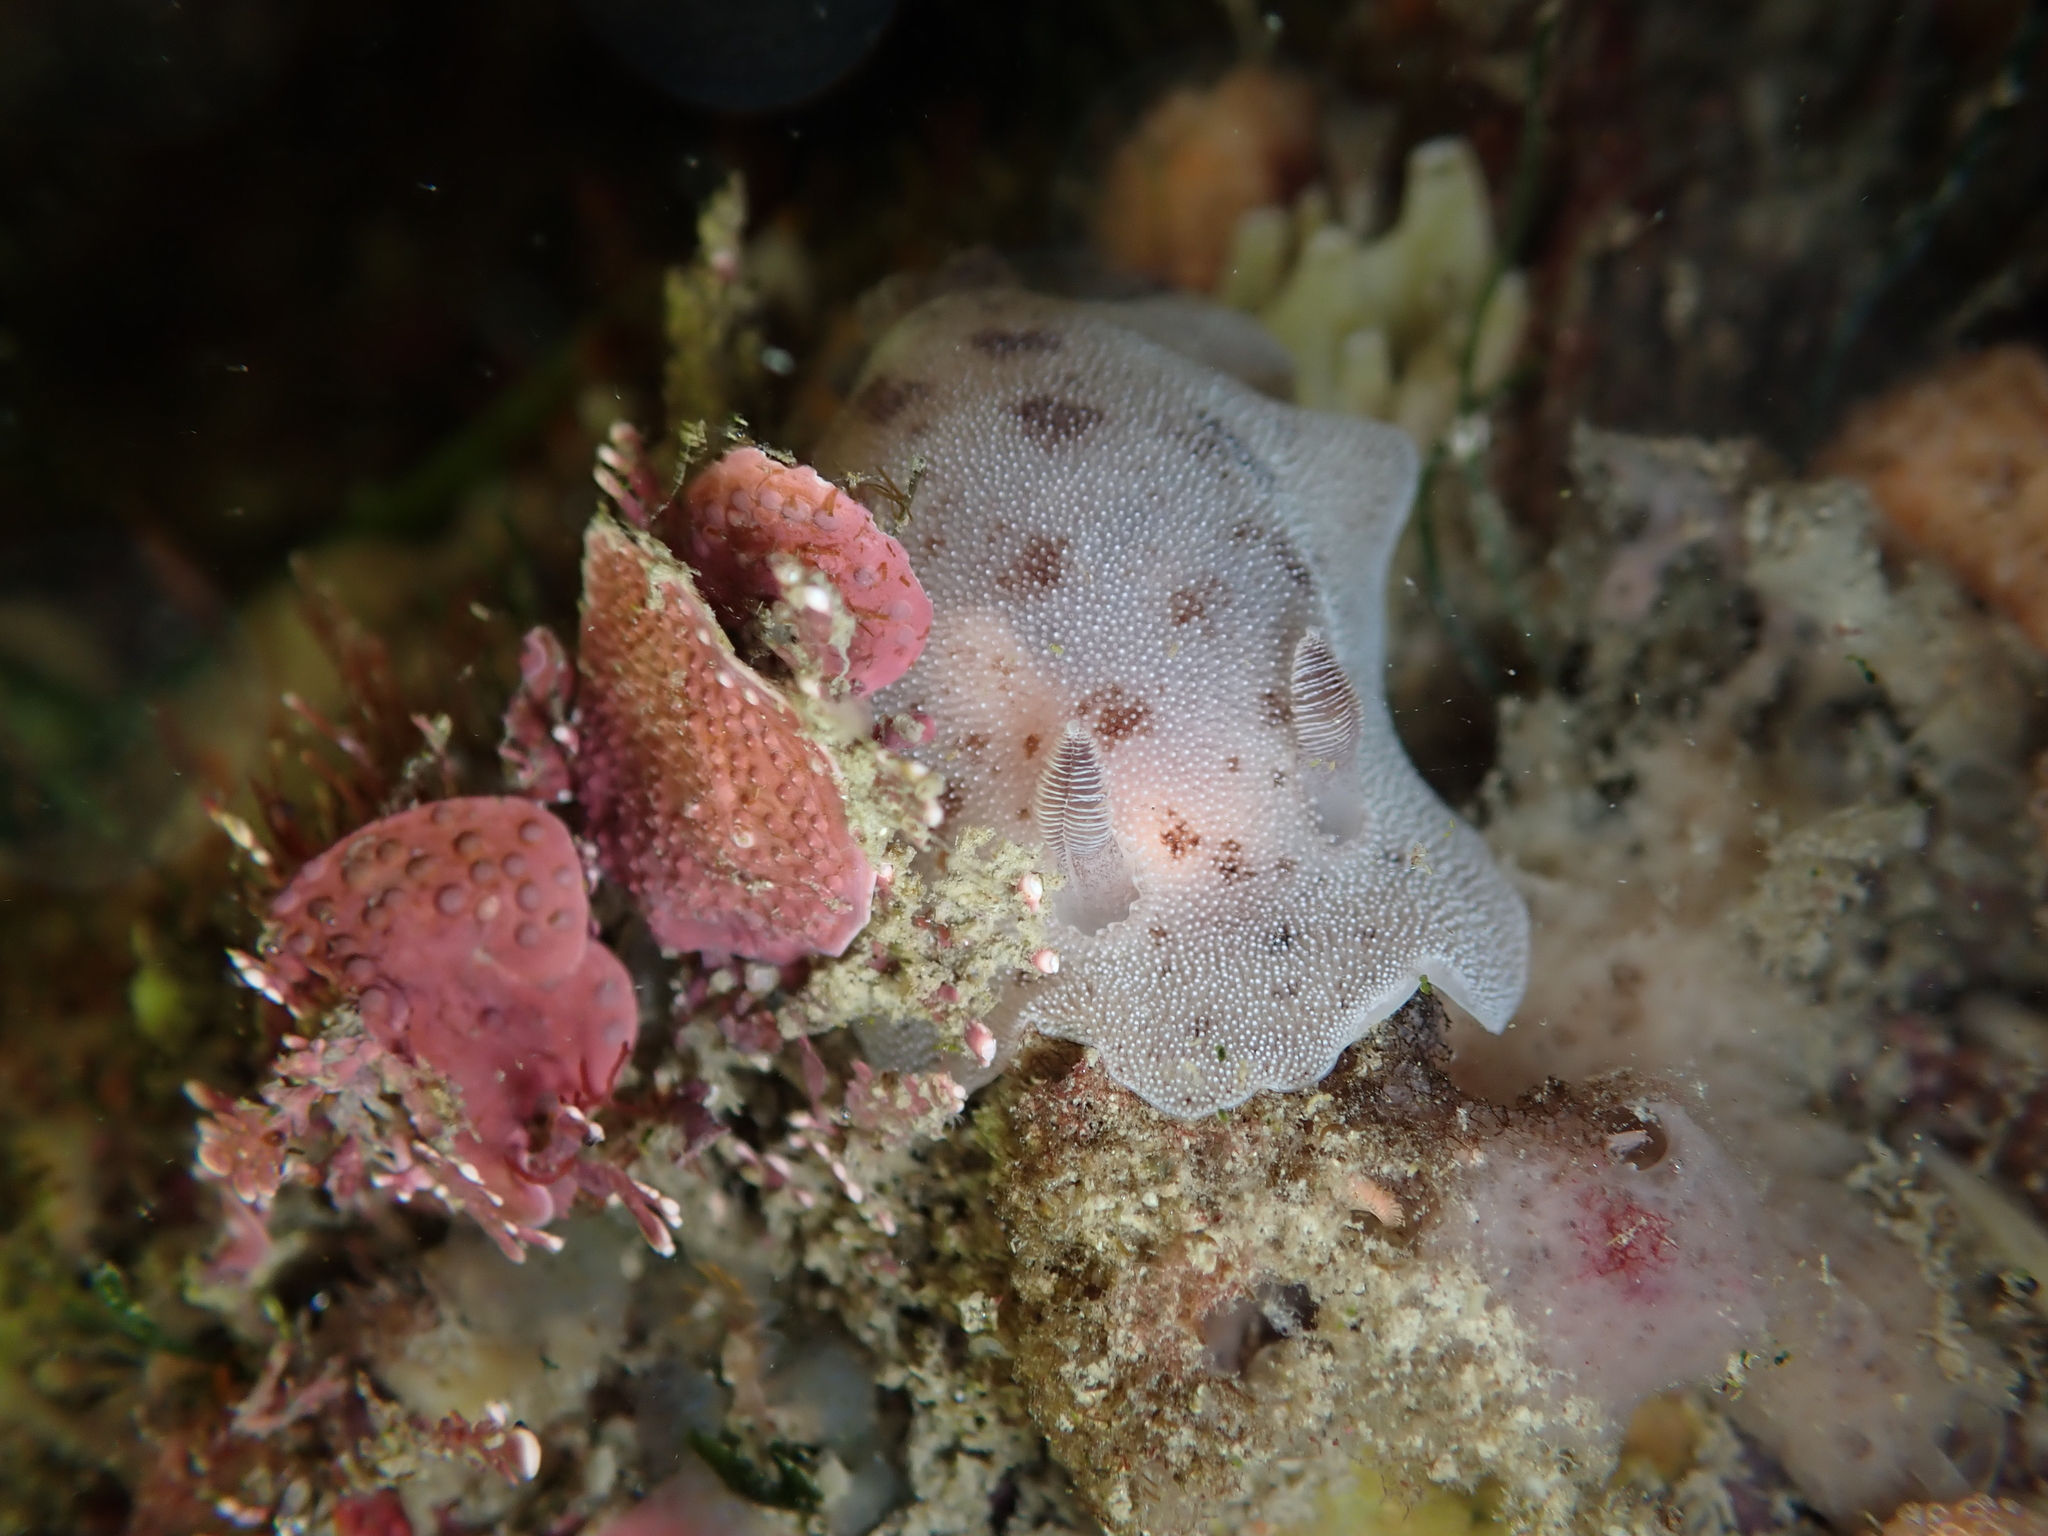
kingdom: Animalia
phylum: Mollusca
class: Gastropoda
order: Nudibranchia
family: Discodorididae
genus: Alloiodoris
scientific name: Alloiodoris lanuginata
